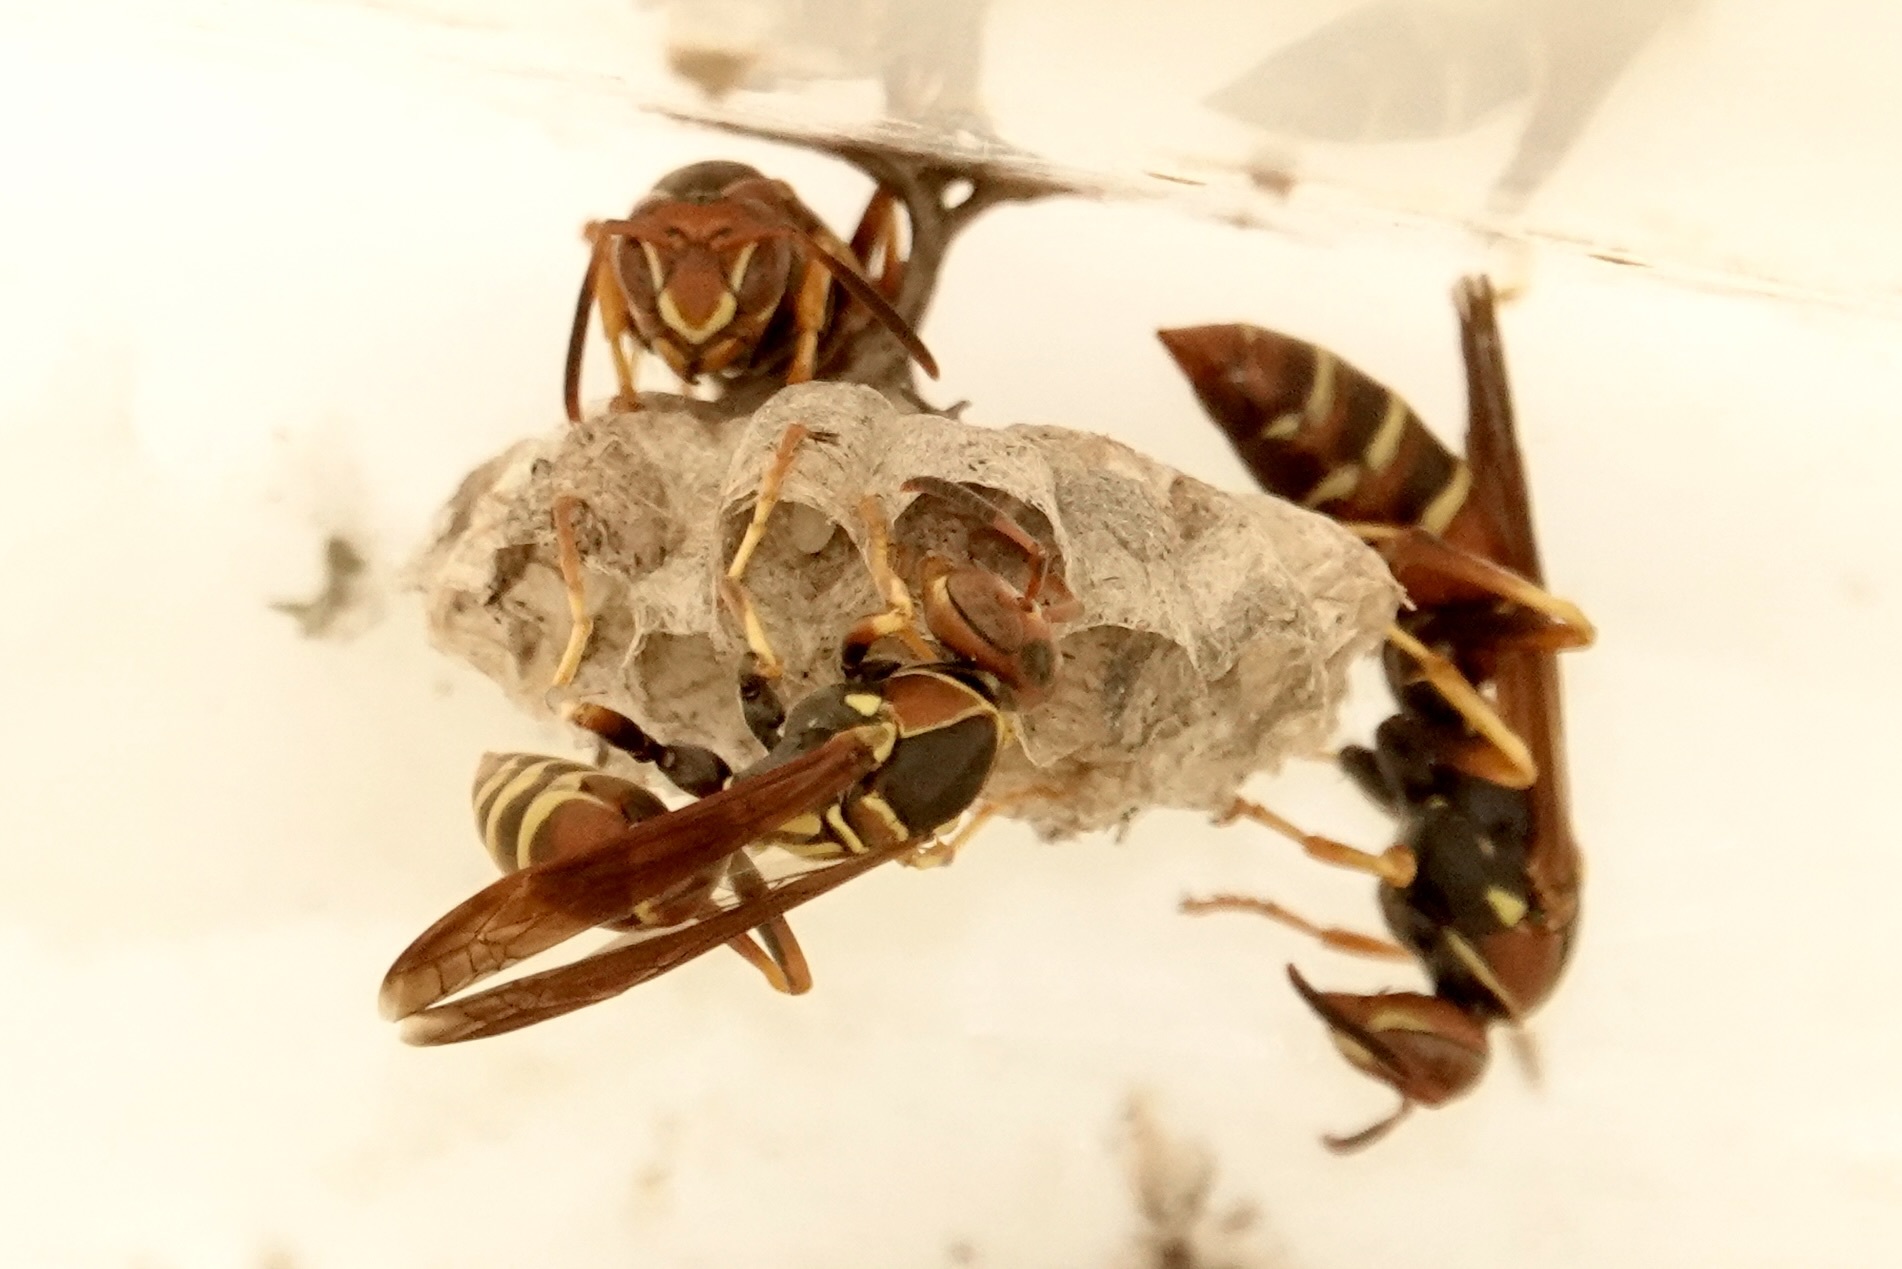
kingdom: Animalia
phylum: Arthropoda
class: Insecta
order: Hymenoptera
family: Eumenidae
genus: Polistes
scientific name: Polistes dorsalis
